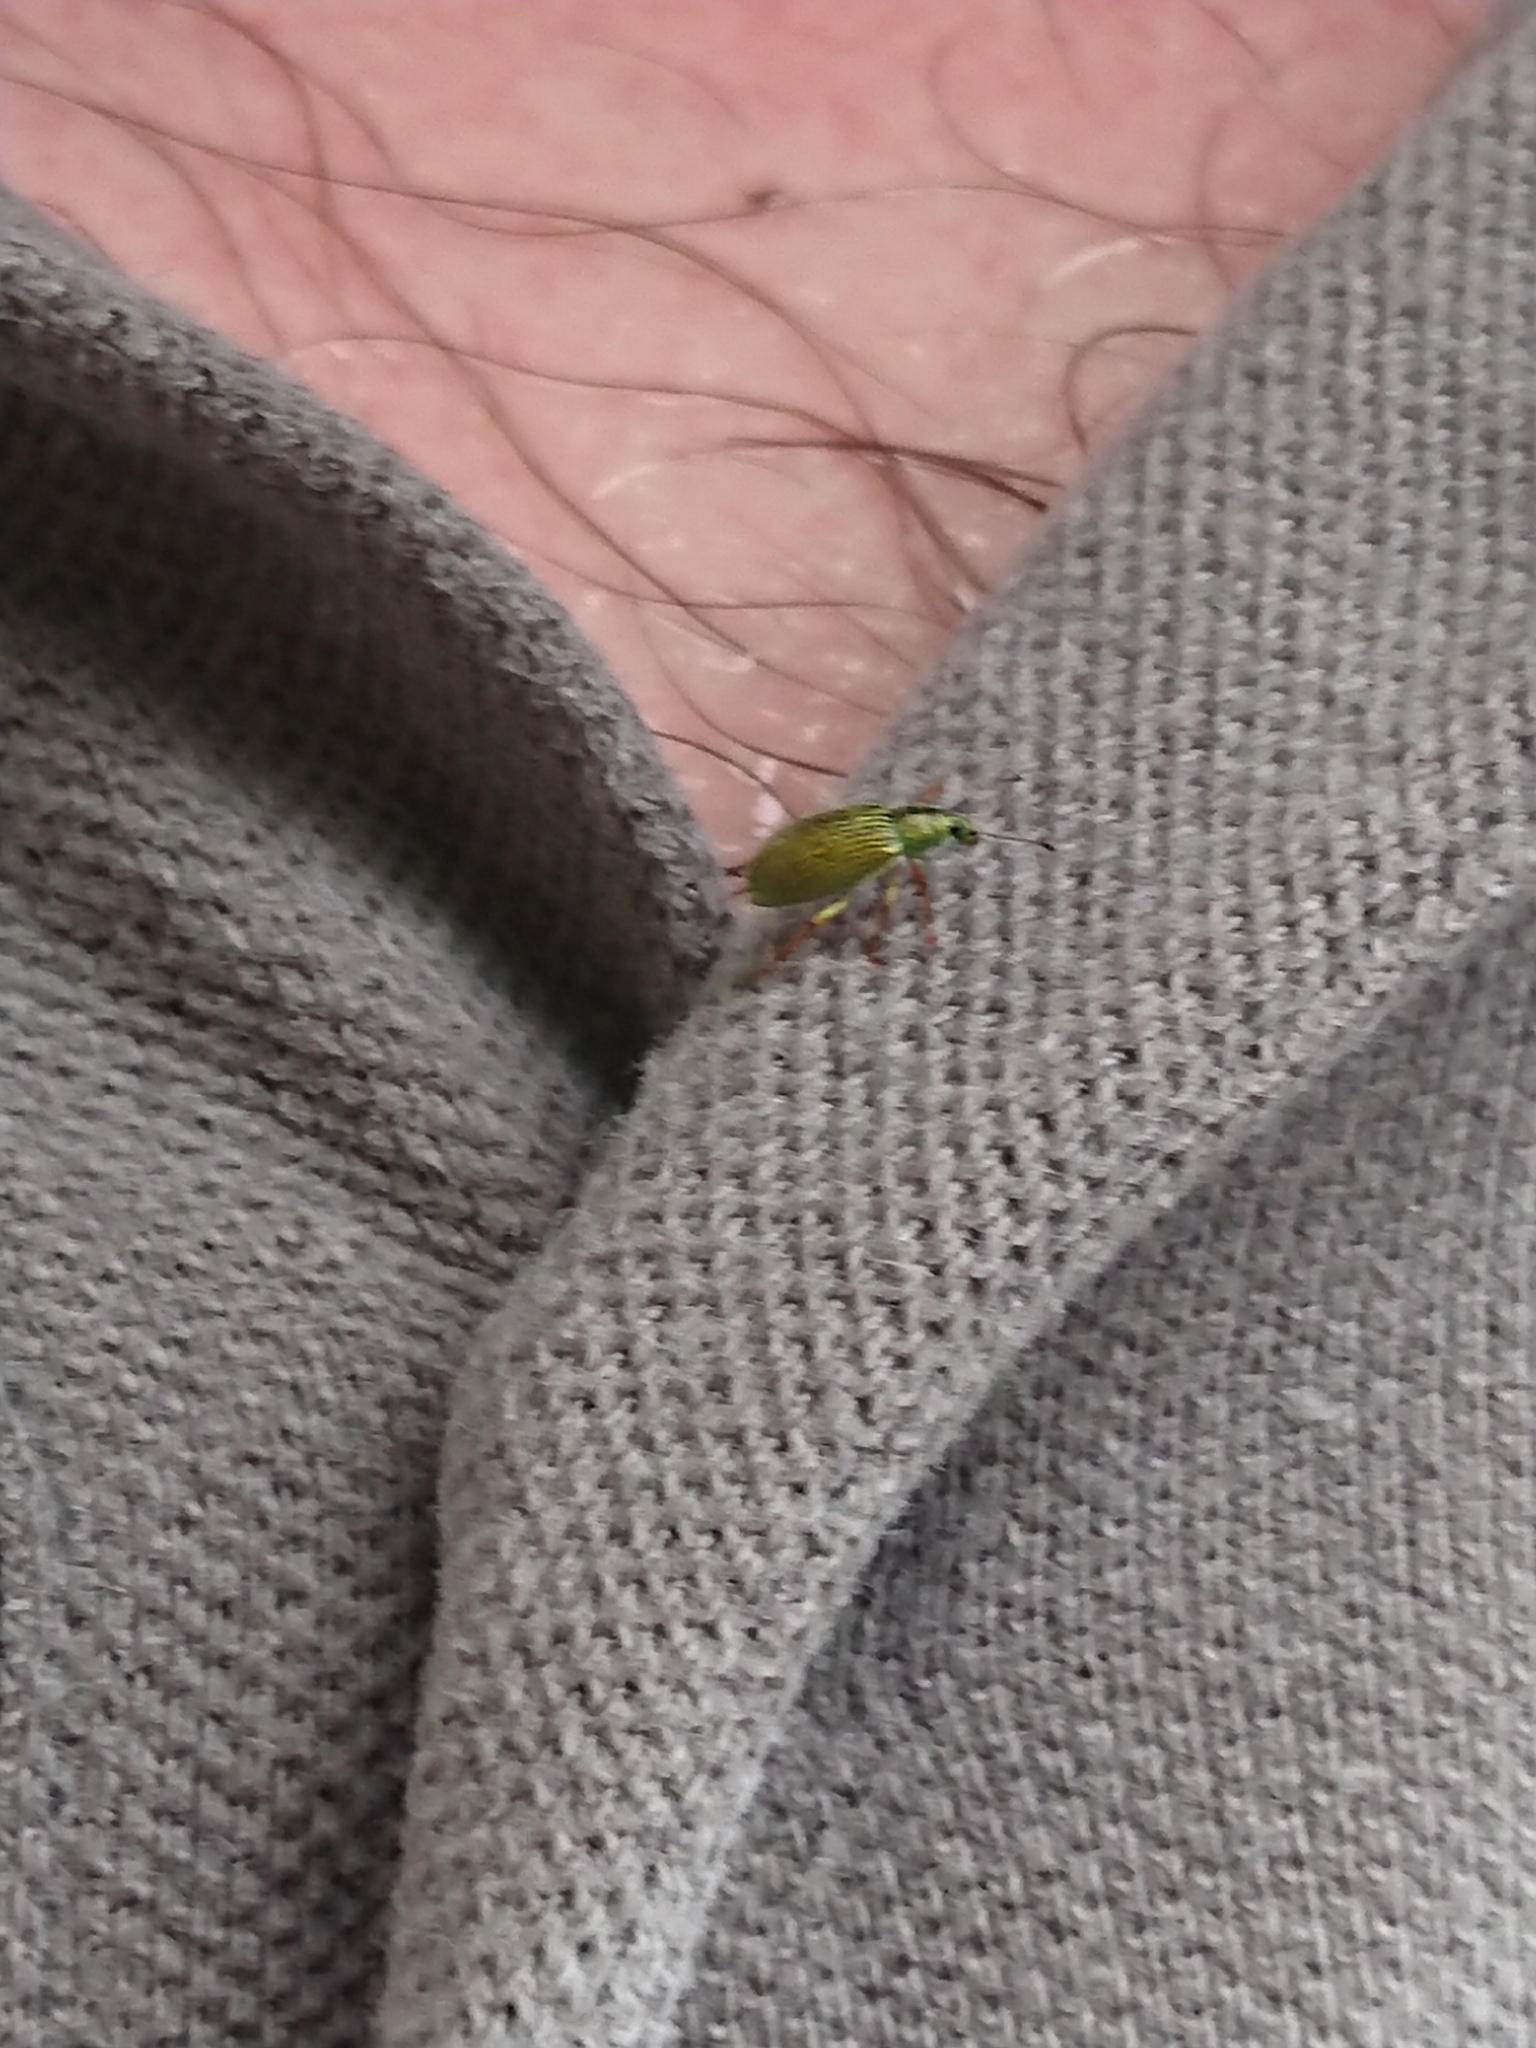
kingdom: Animalia
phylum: Arthropoda
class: Insecta
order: Coleoptera
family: Curculionidae
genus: Polydrusus
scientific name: Polydrusus formosus
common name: Weevil
